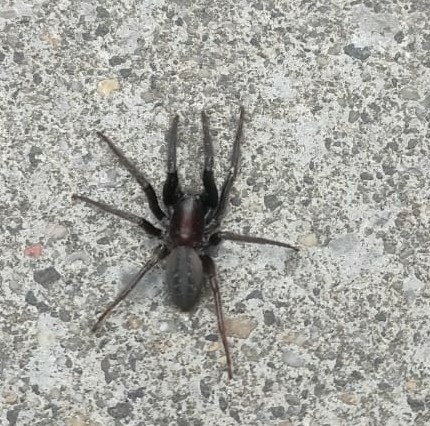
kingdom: Animalia
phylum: Arthropoda
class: Arachnida
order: Araneae
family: Segestriidae
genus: Segestria
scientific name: Segestria florentina
